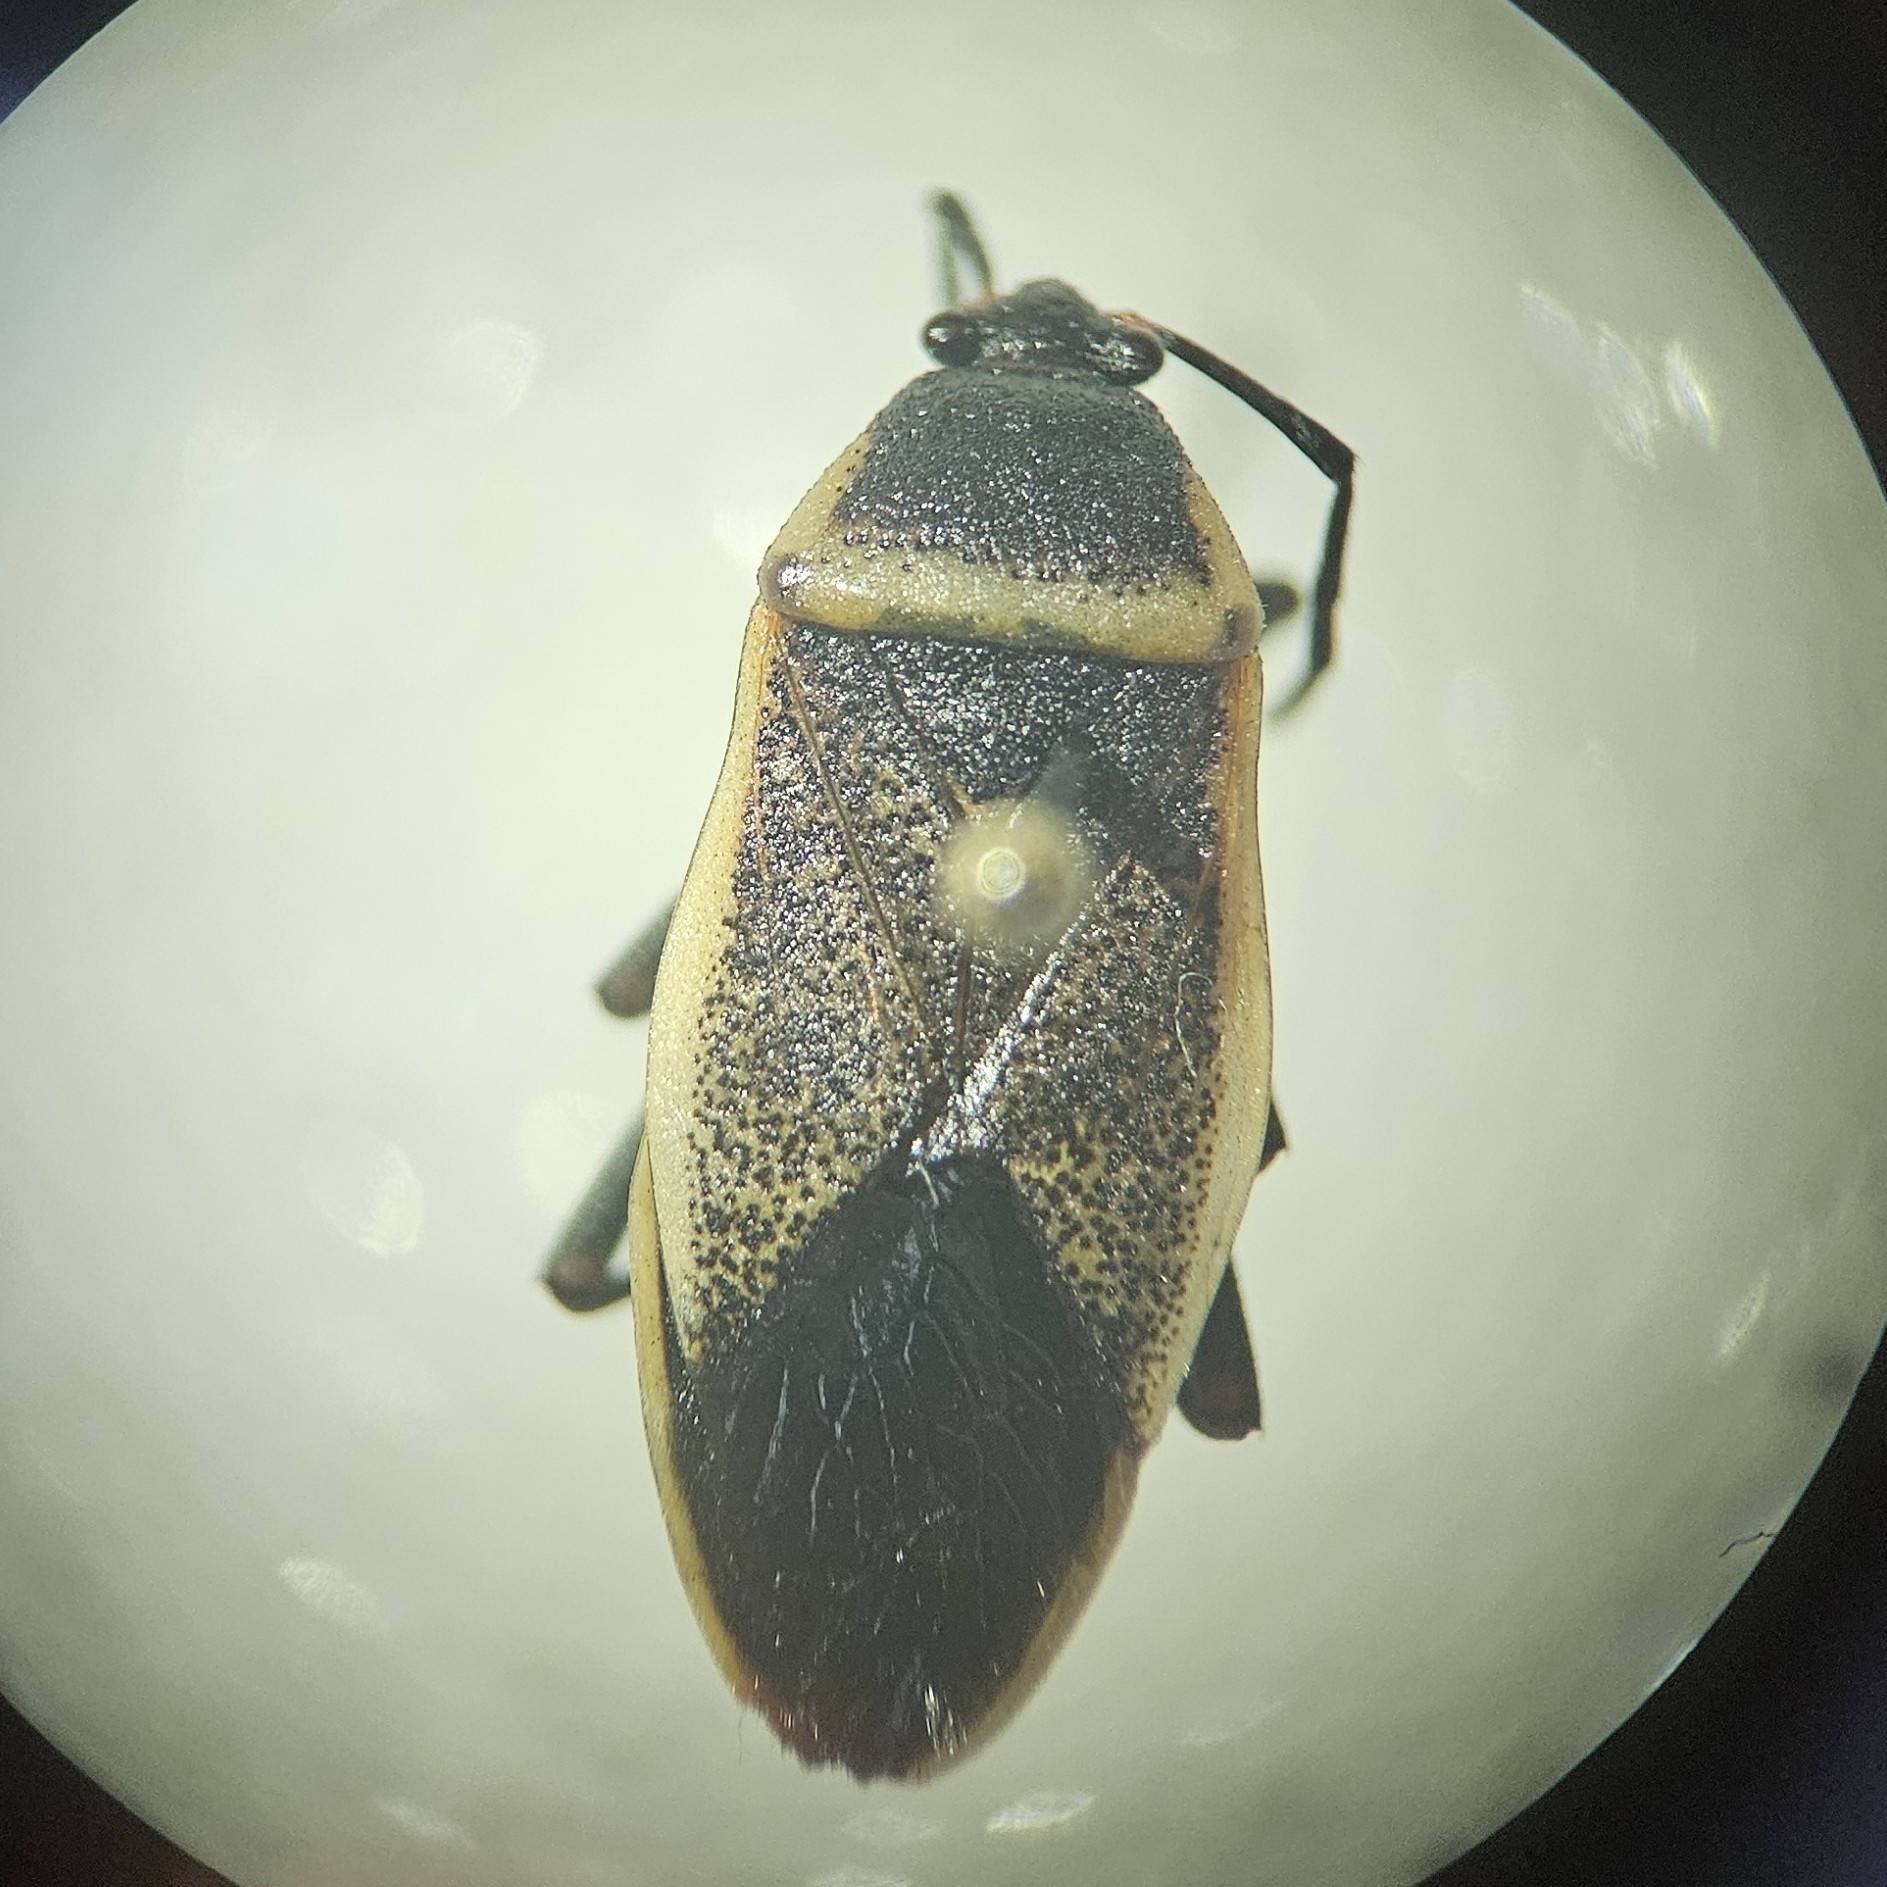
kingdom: Animalia
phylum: Arthropoda
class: Insecta
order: Hemiptera
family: Largidae
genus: Largus
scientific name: Largus californicus
